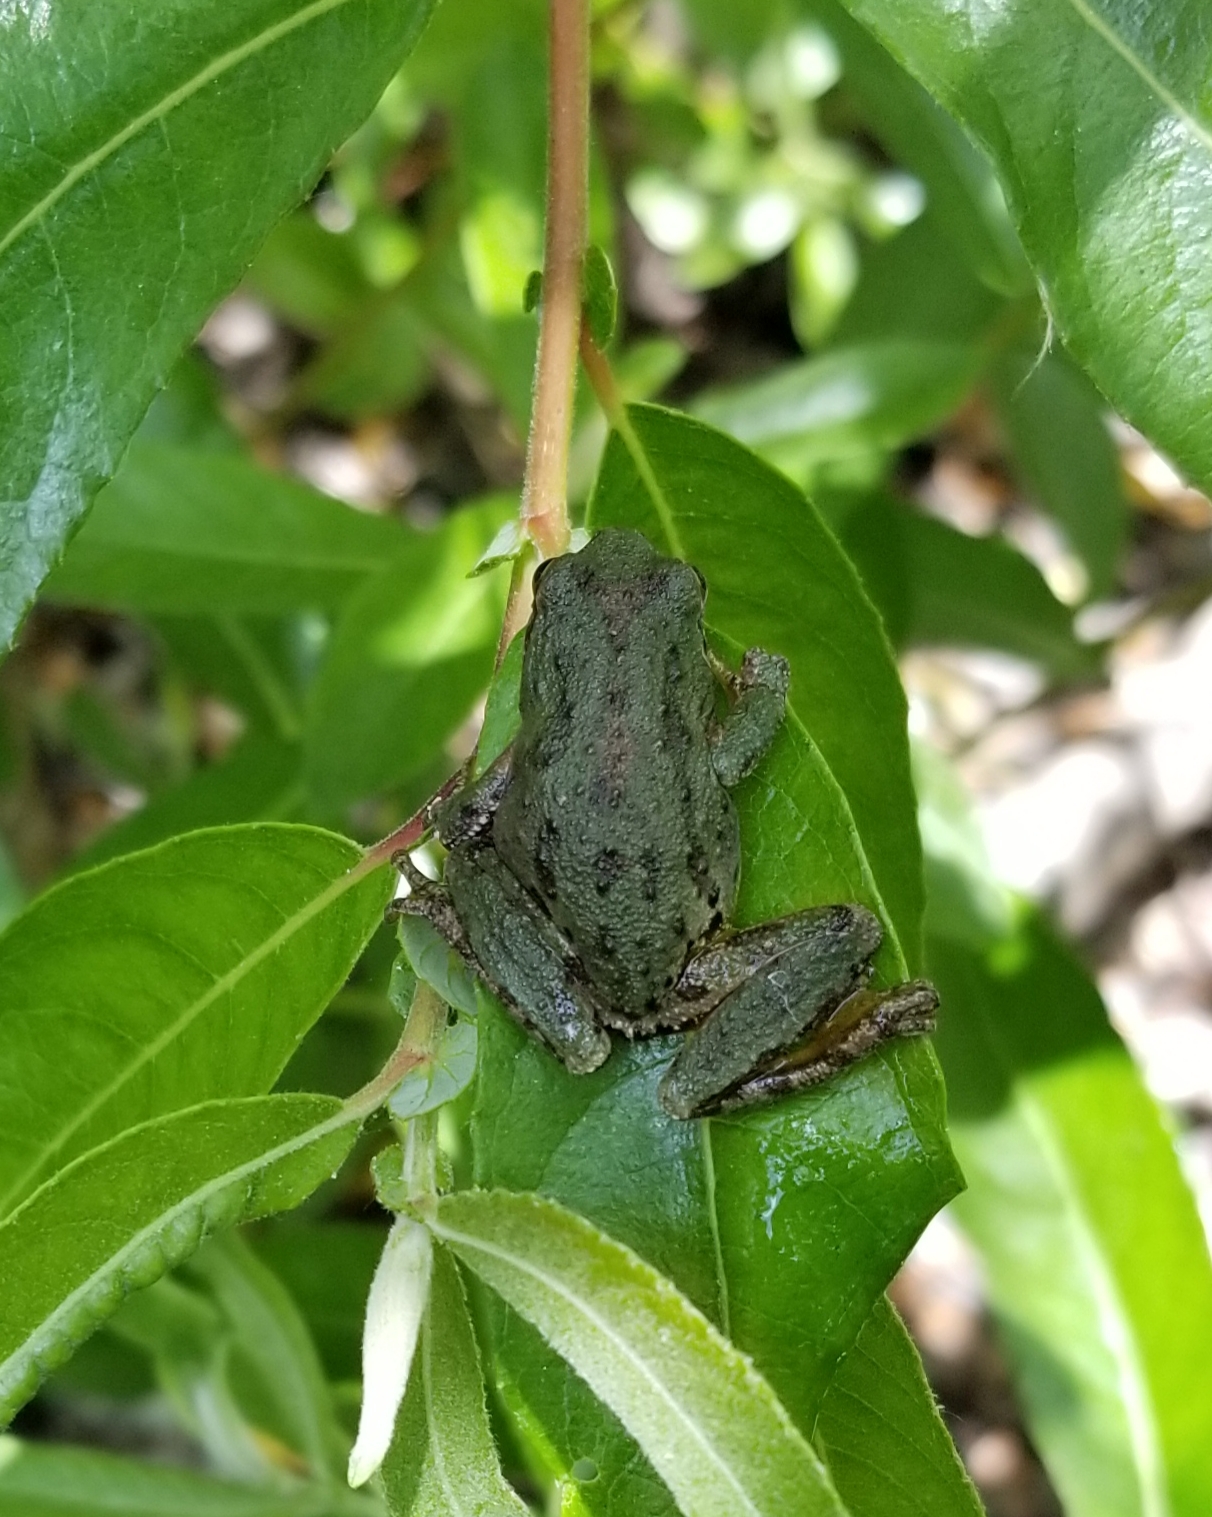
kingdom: Animalia
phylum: Chordata
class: Amphibia
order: Anura
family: Hylidae
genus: Pseudacris
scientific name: Pseudacris regilla
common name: Pacific chorus frog
